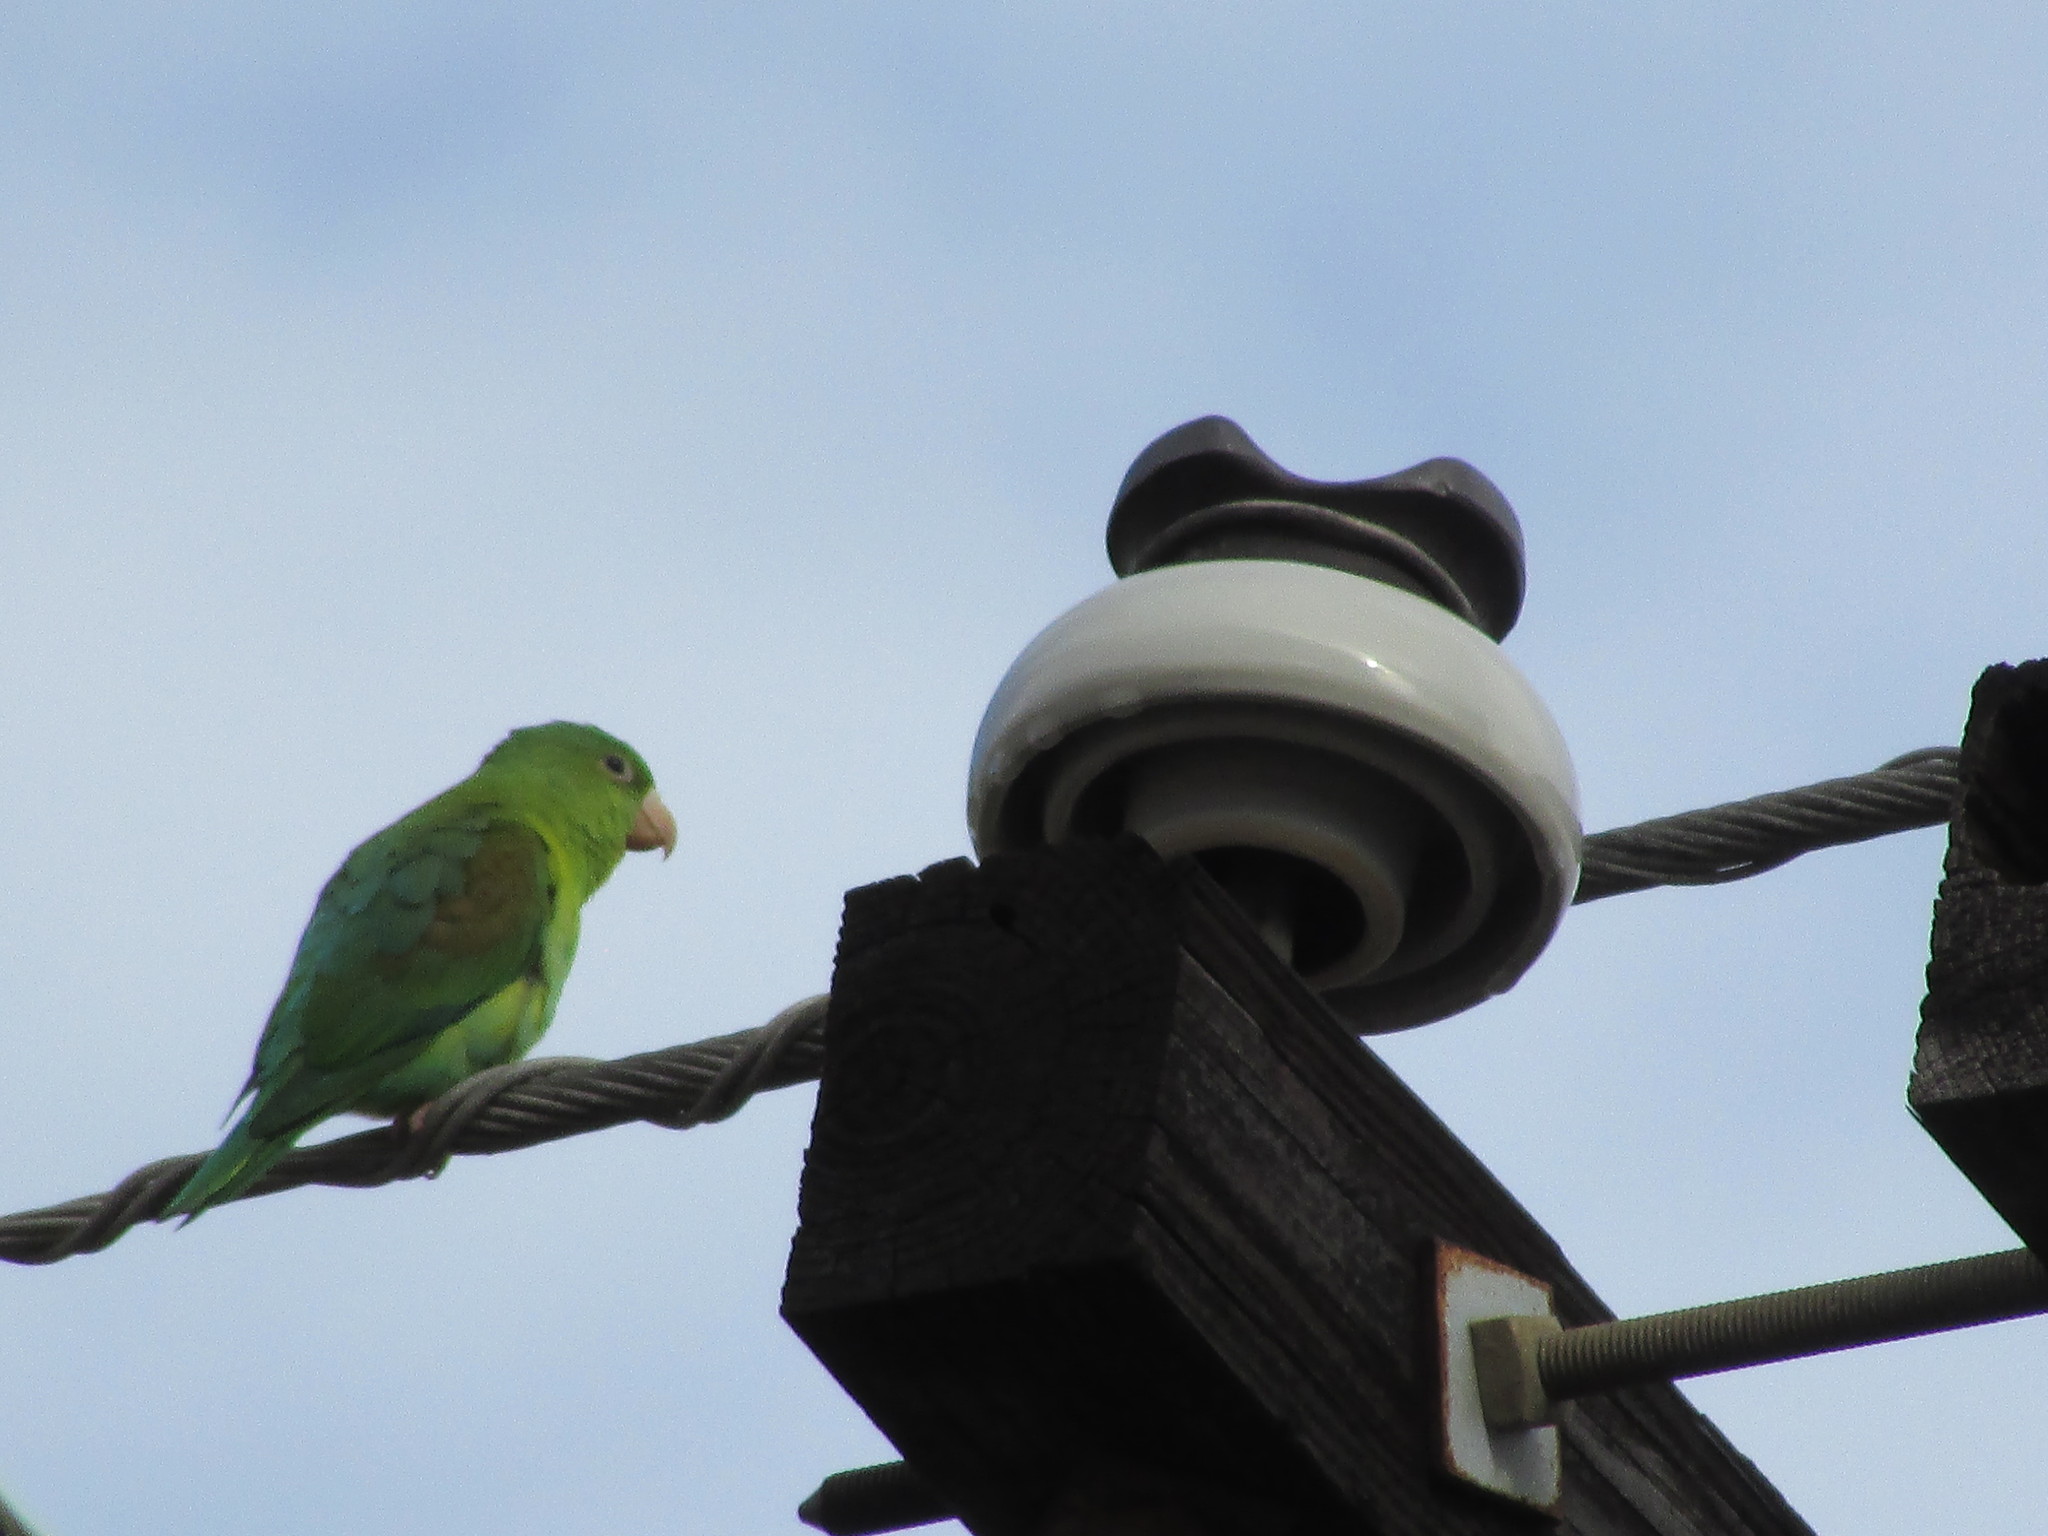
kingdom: Animalia
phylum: Chordata
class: Aves
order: Psittaciformes
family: Psittacidae
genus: Brotogeris
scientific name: Brotogeris jugularis
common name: Orange-chinned parakeet
